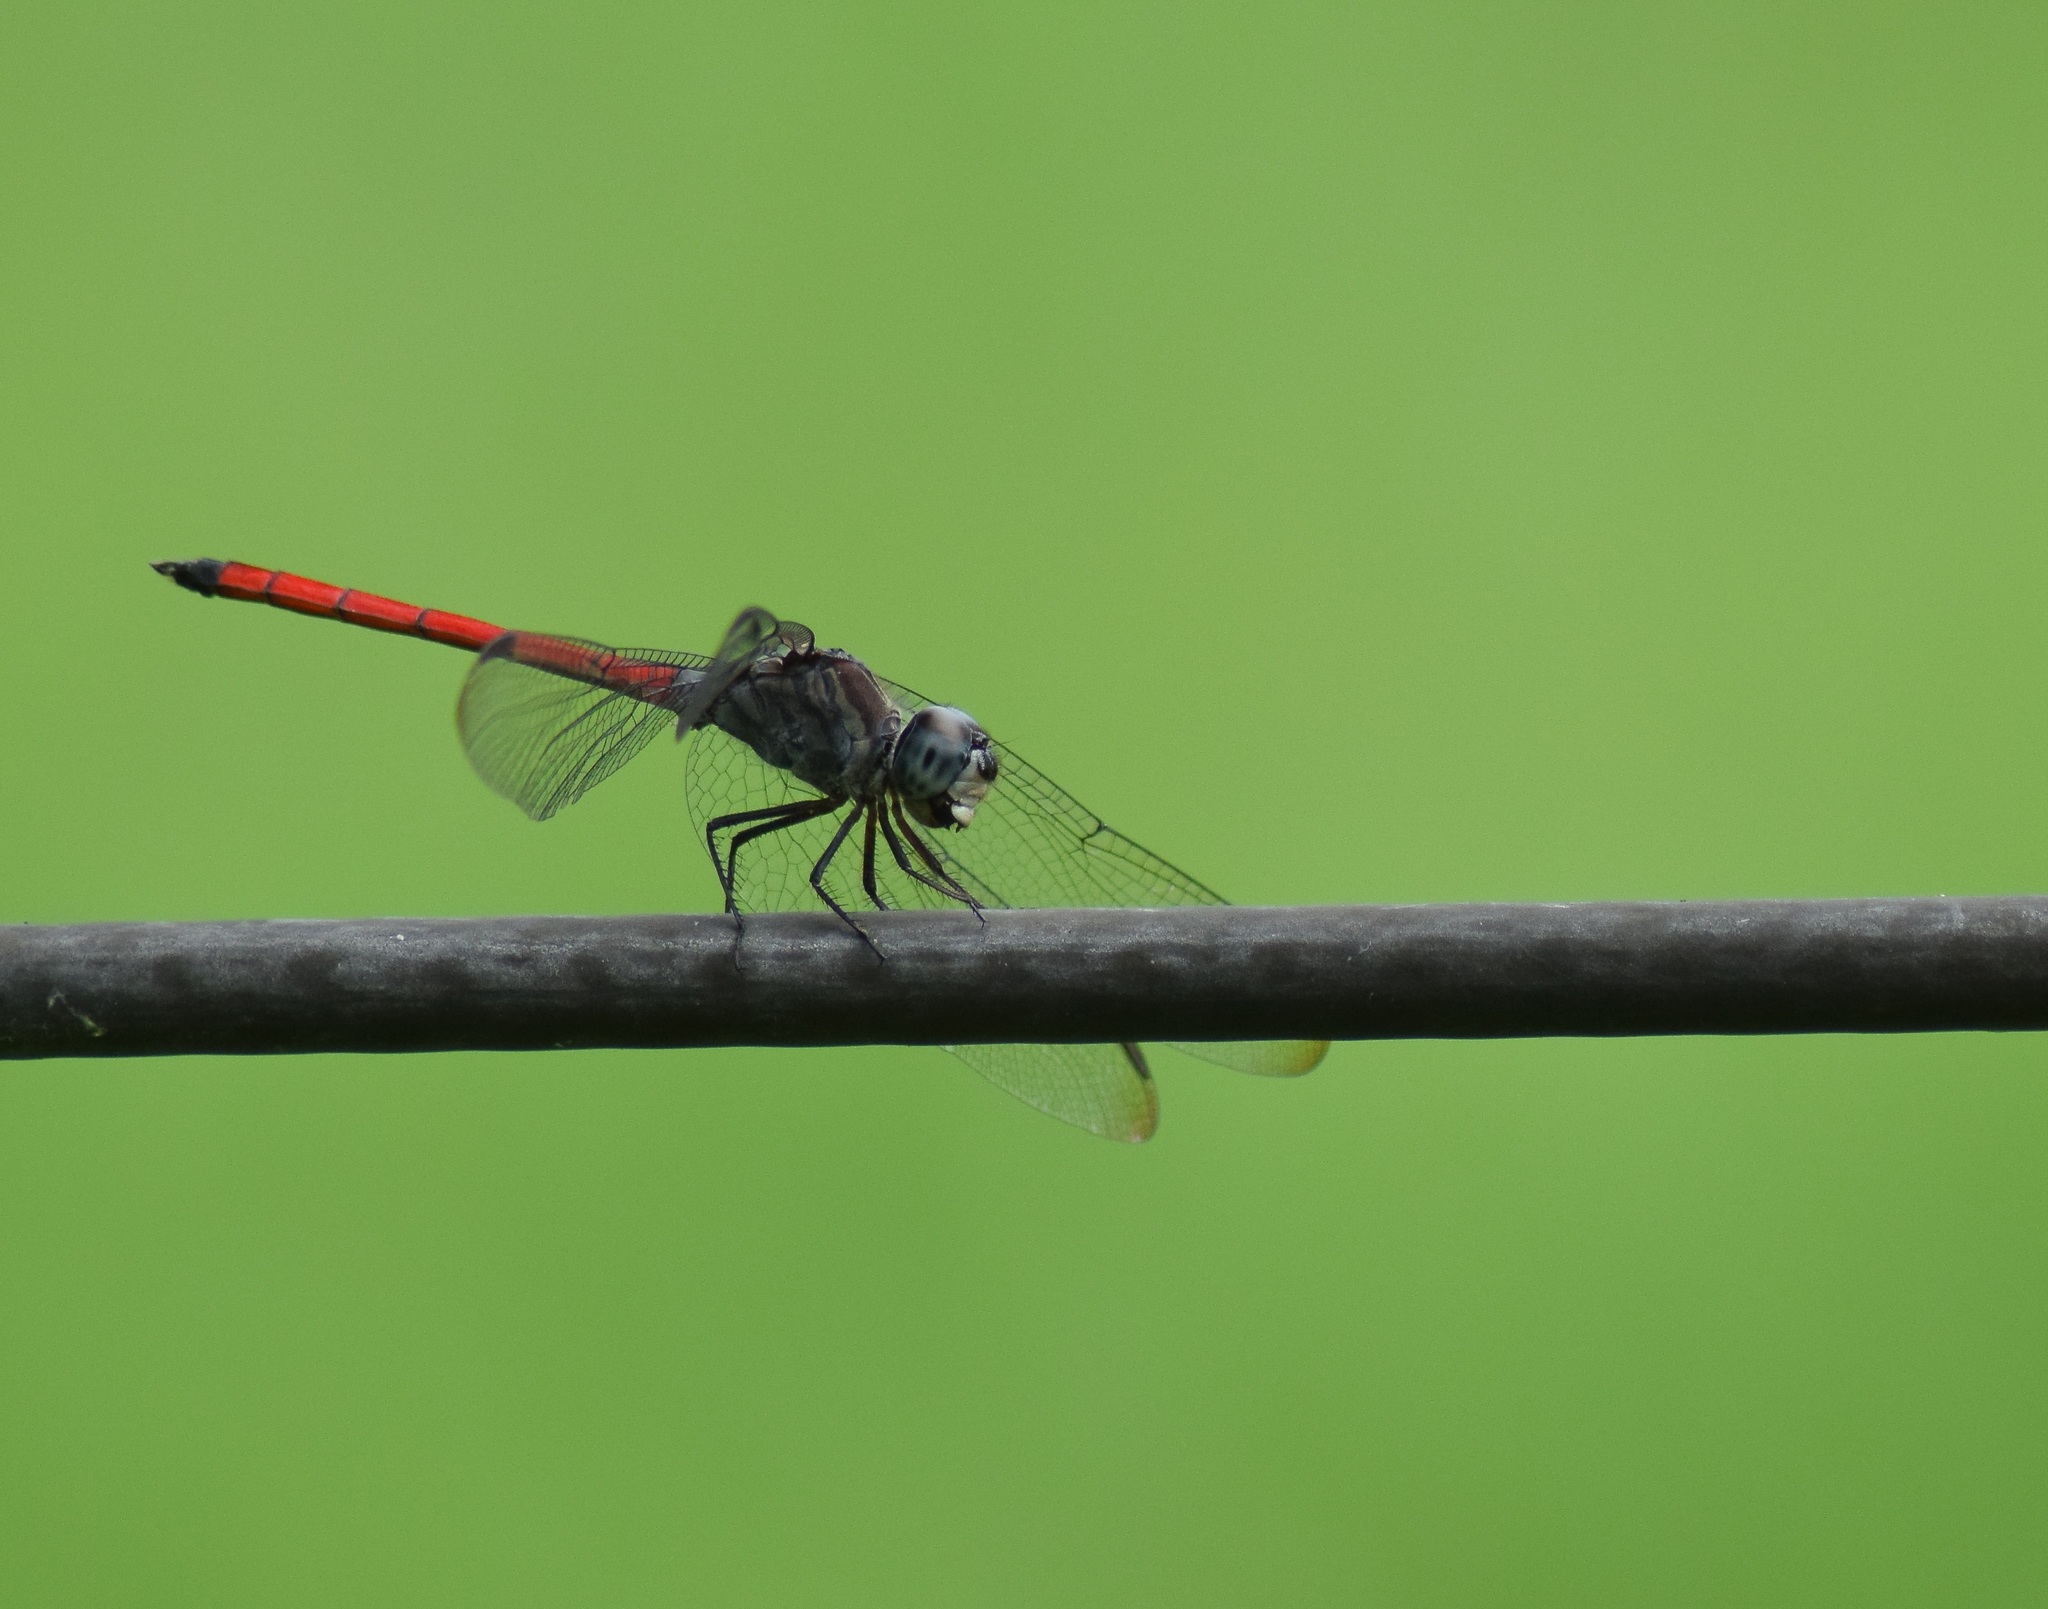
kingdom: Animalia
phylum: Arthropoda
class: Insecta
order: Odonata
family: Libellulidae
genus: Lathrecista
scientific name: Lathrecista asiatica
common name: Scarlet grenadier
